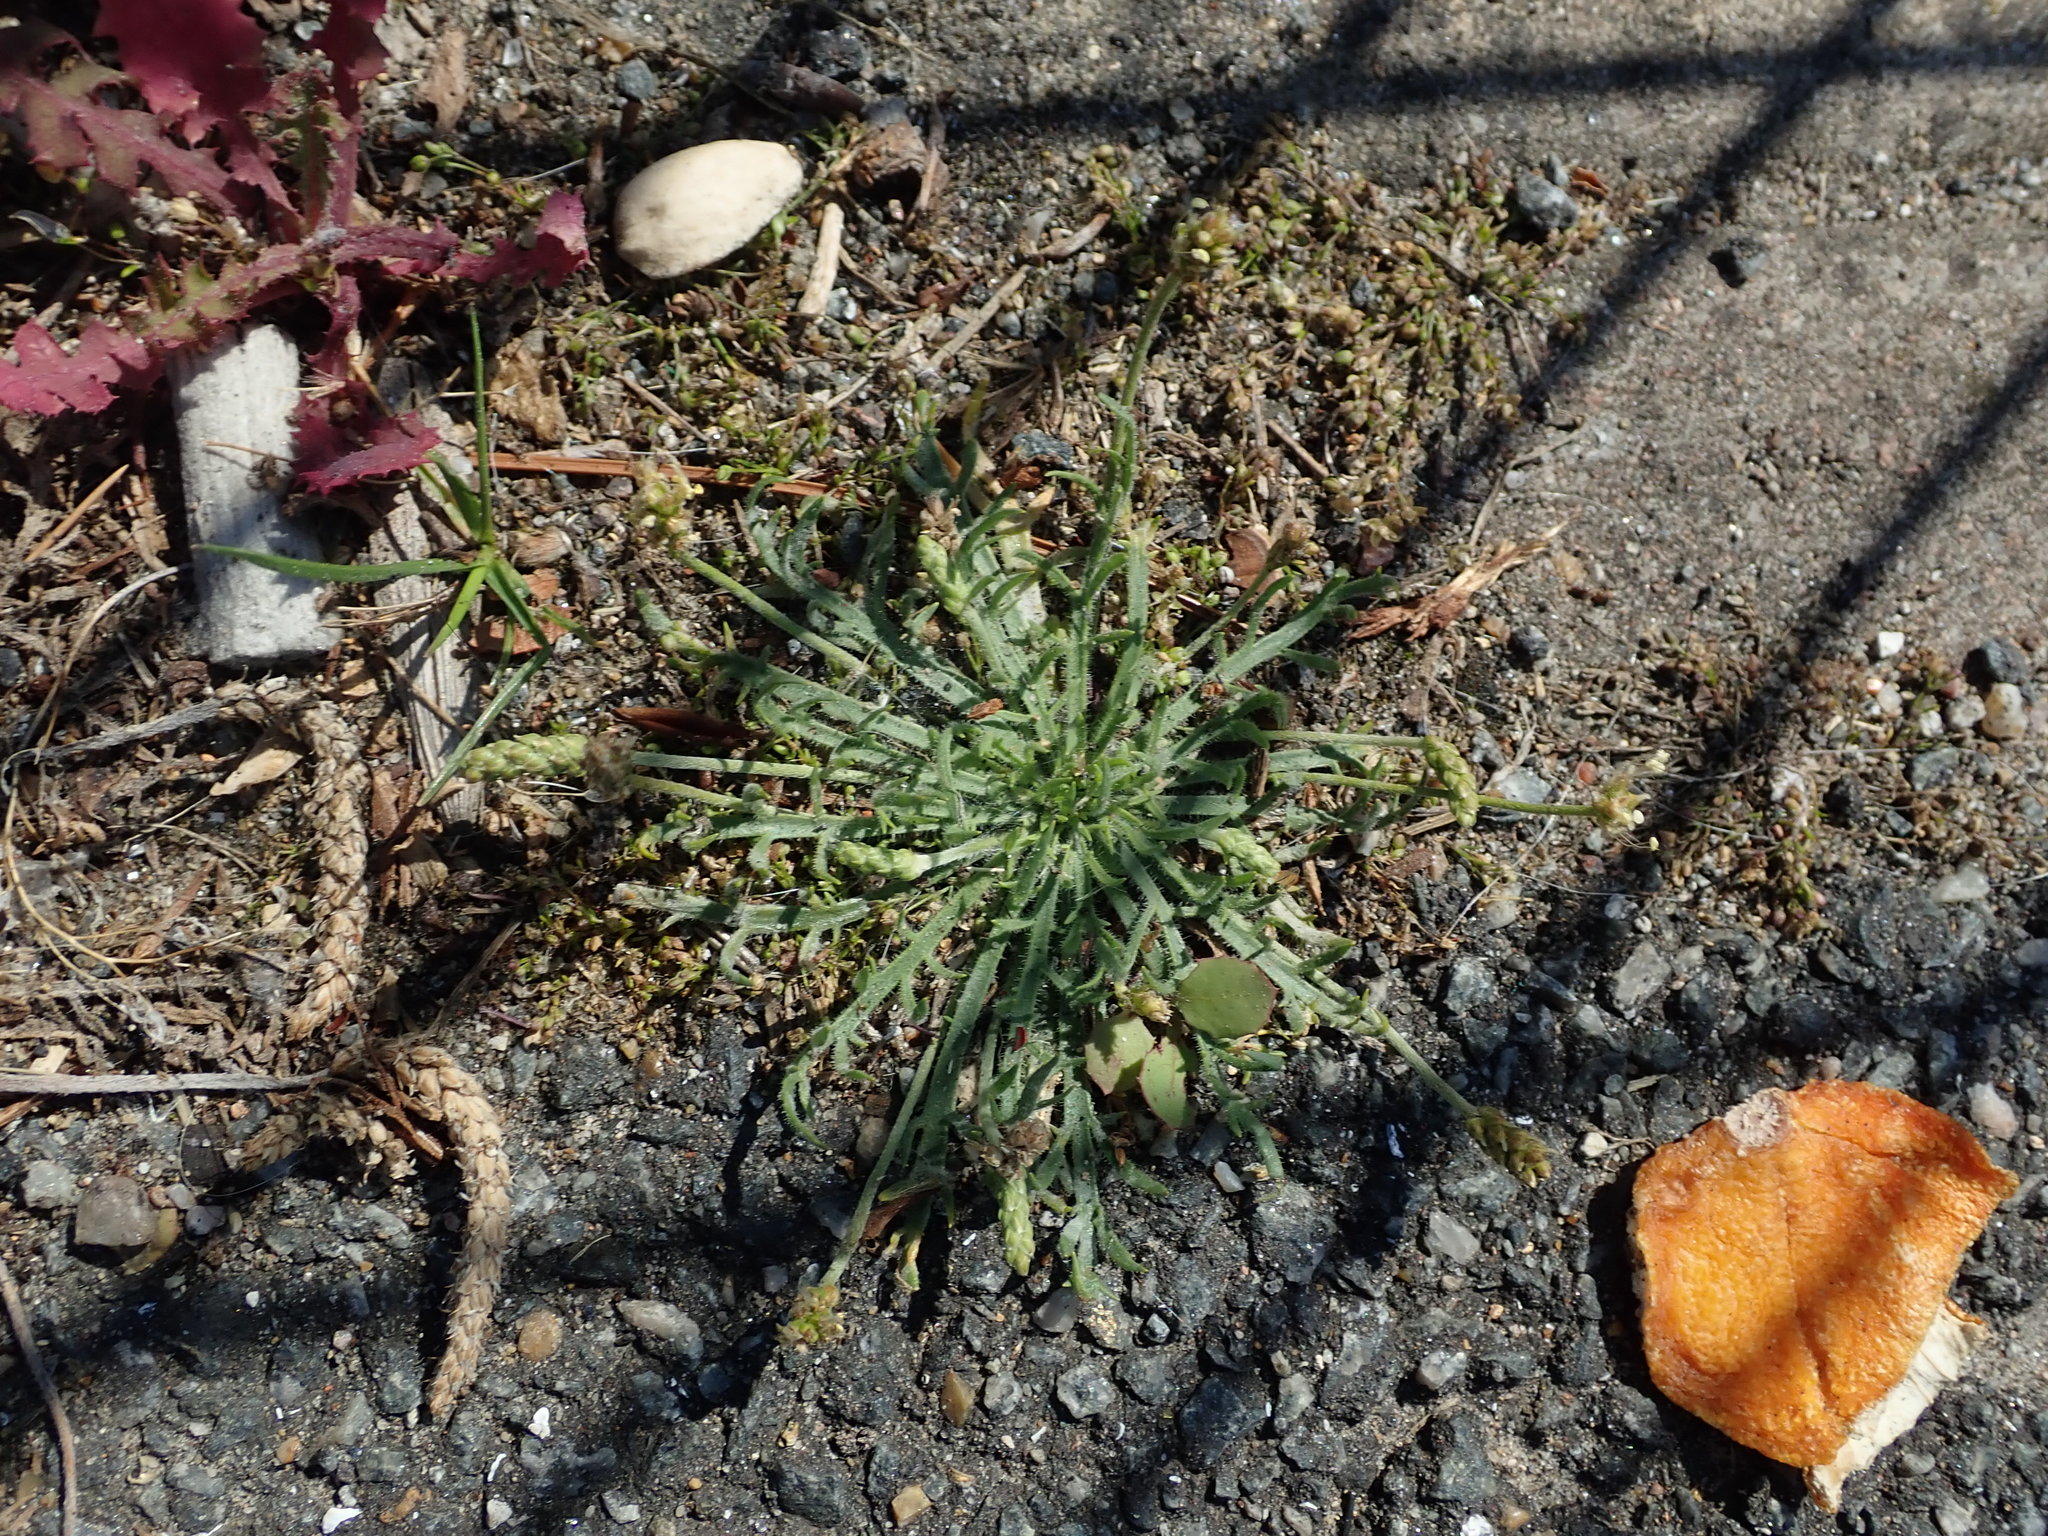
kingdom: Plantae
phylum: Tracheophyta
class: Magnoliopsida
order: Lamiales
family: Plantaginaceae
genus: Plantago
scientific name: Plantago coronopus
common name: Buck's-horn plantain
